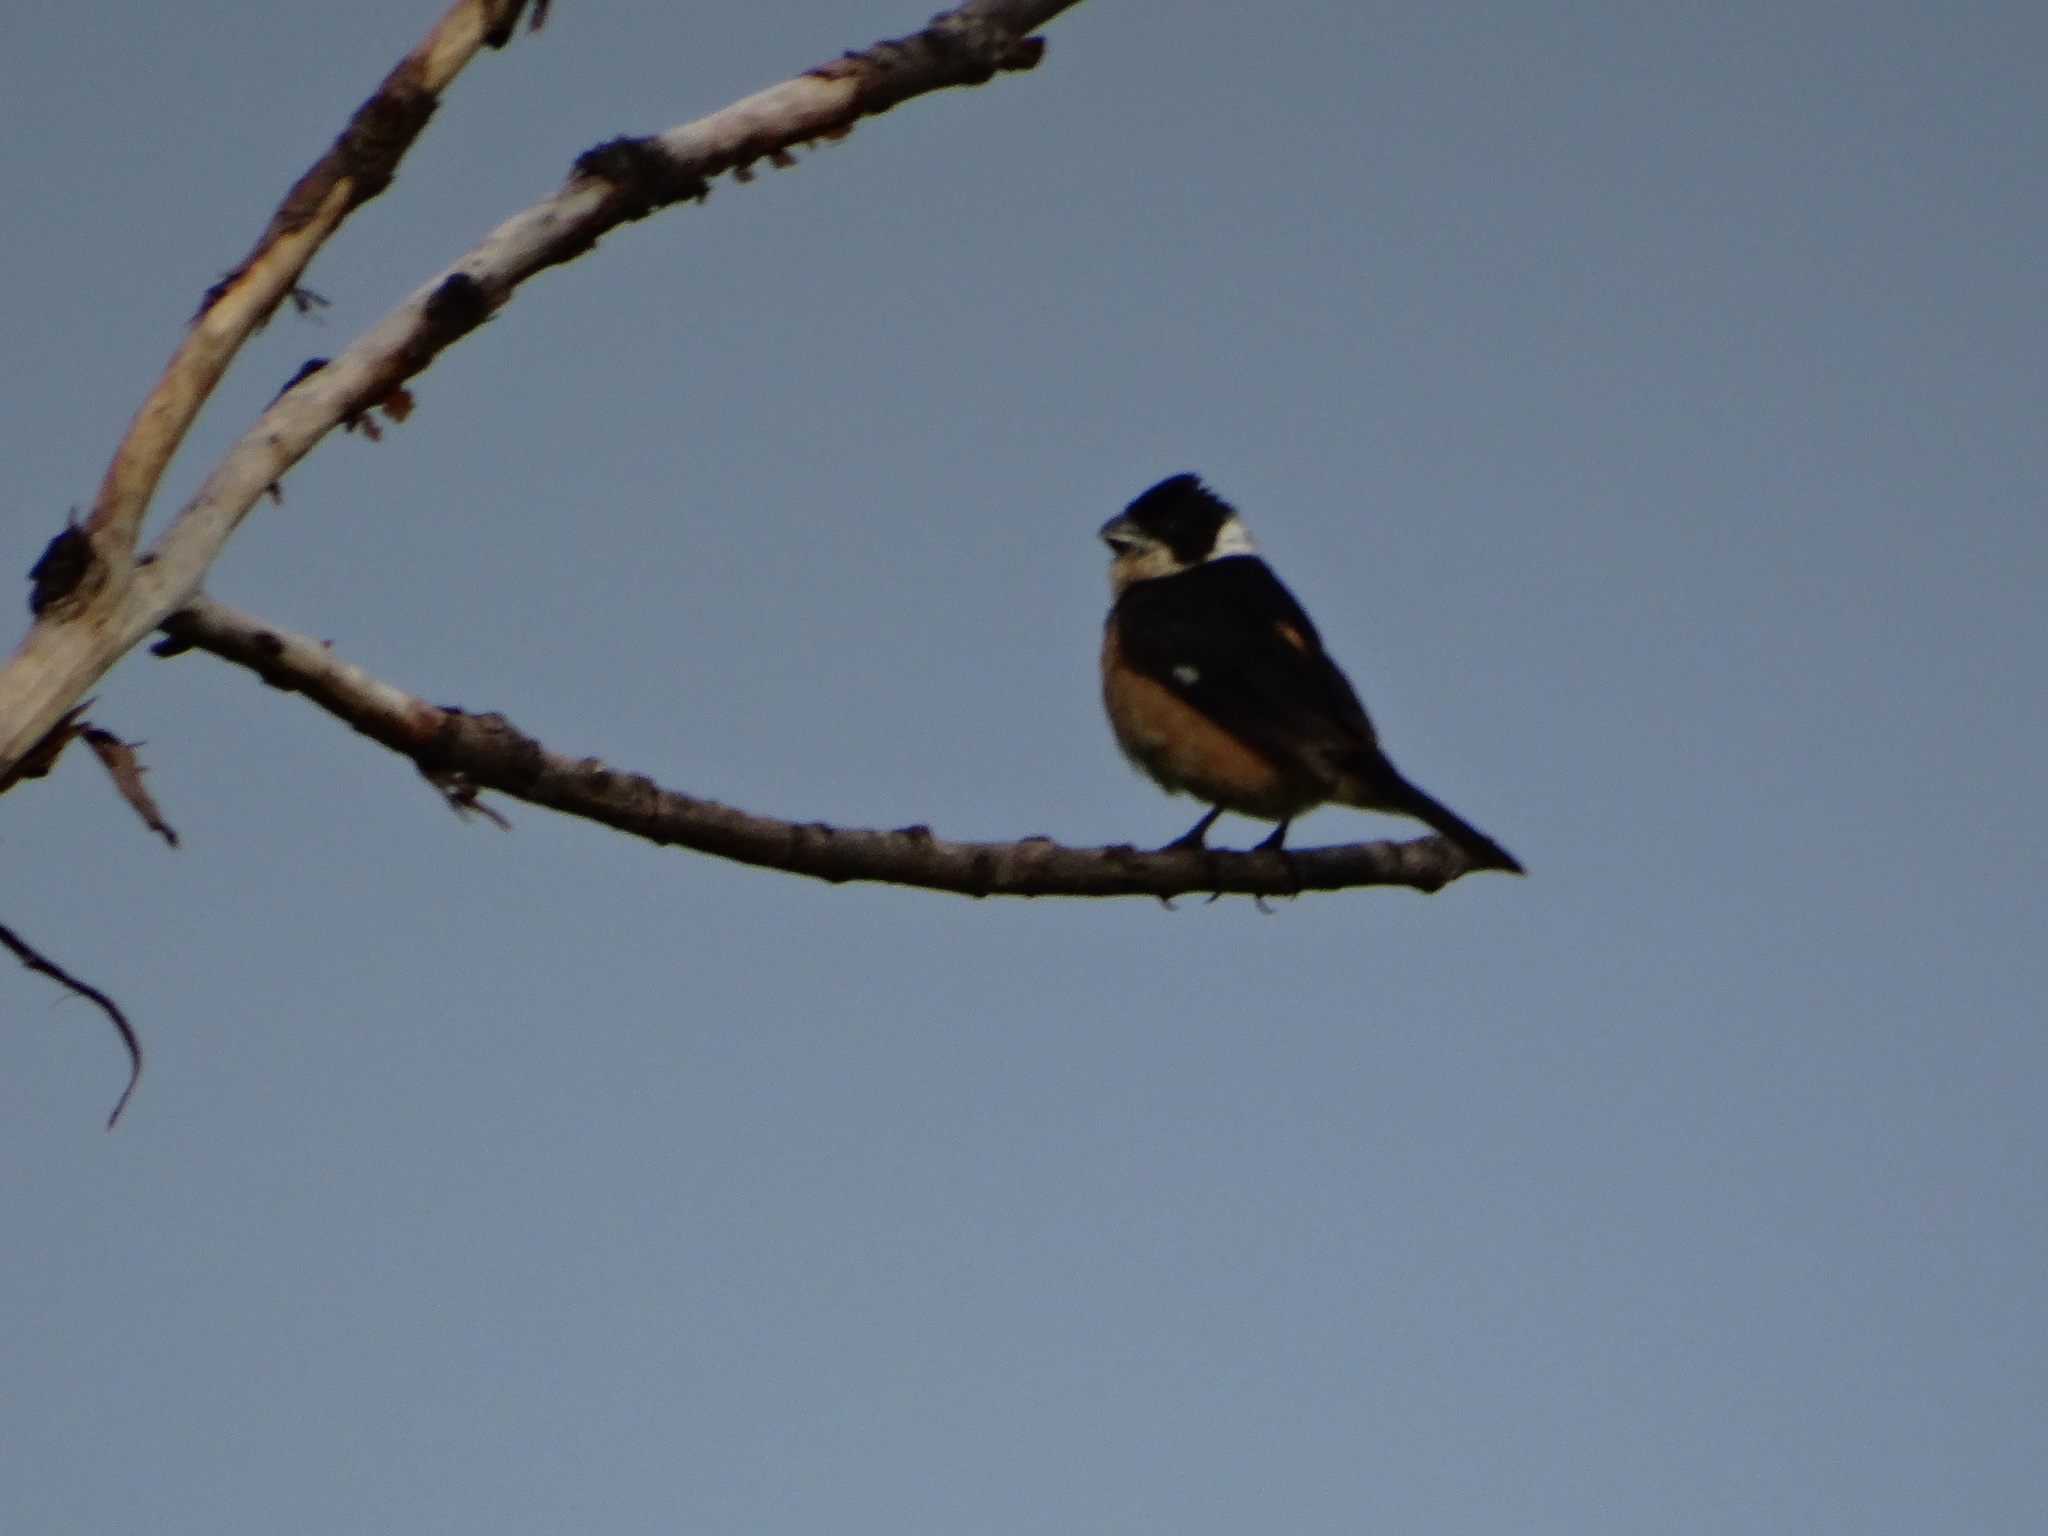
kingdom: Animalia
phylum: Chordata
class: Aves
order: Passeriformes
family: Thraupidae
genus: Sporophila
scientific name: Sporophila torqueola
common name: White-collared seedeater
